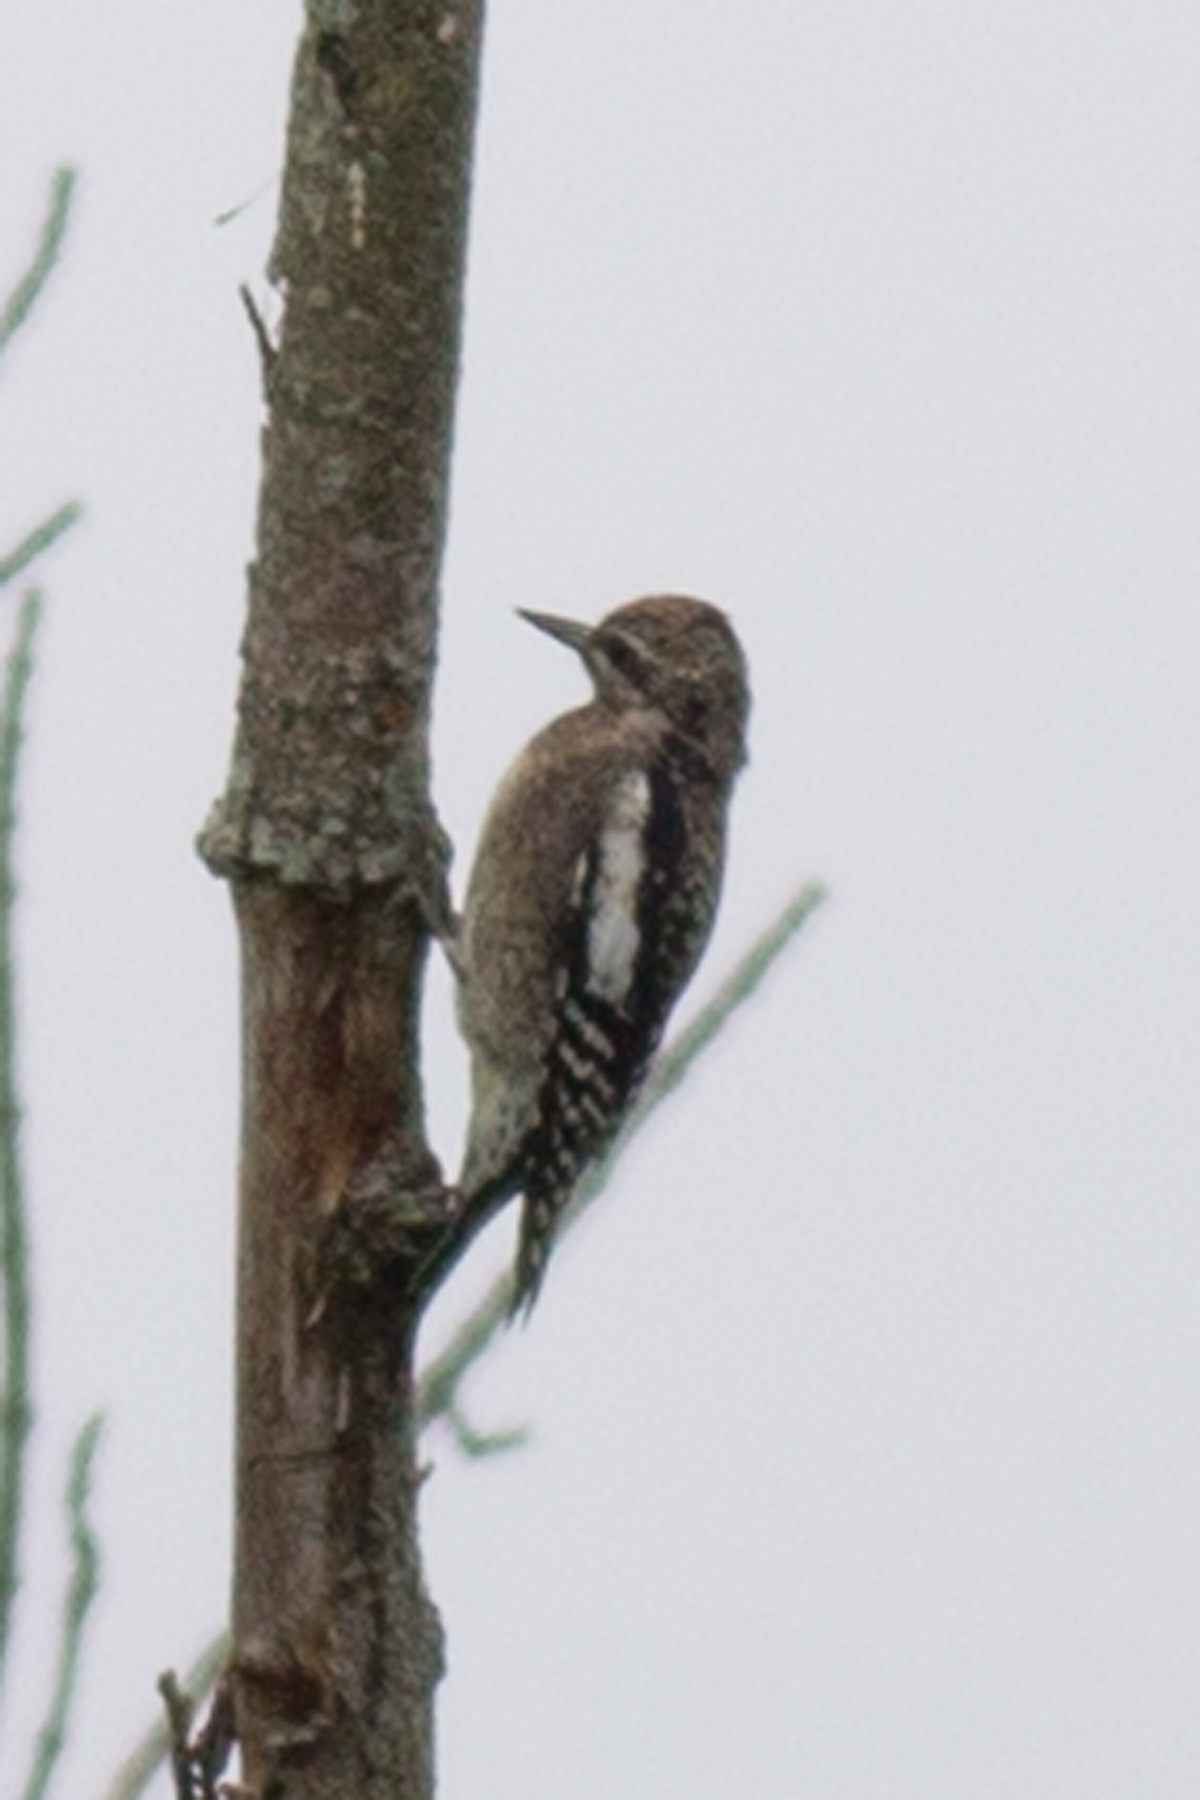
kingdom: Animalia
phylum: Chordata
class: Aves
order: Piciformes
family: Picidae
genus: Sphyrapicus
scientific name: Sphyrapicus varius
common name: Yellow-bellied sapsucker
